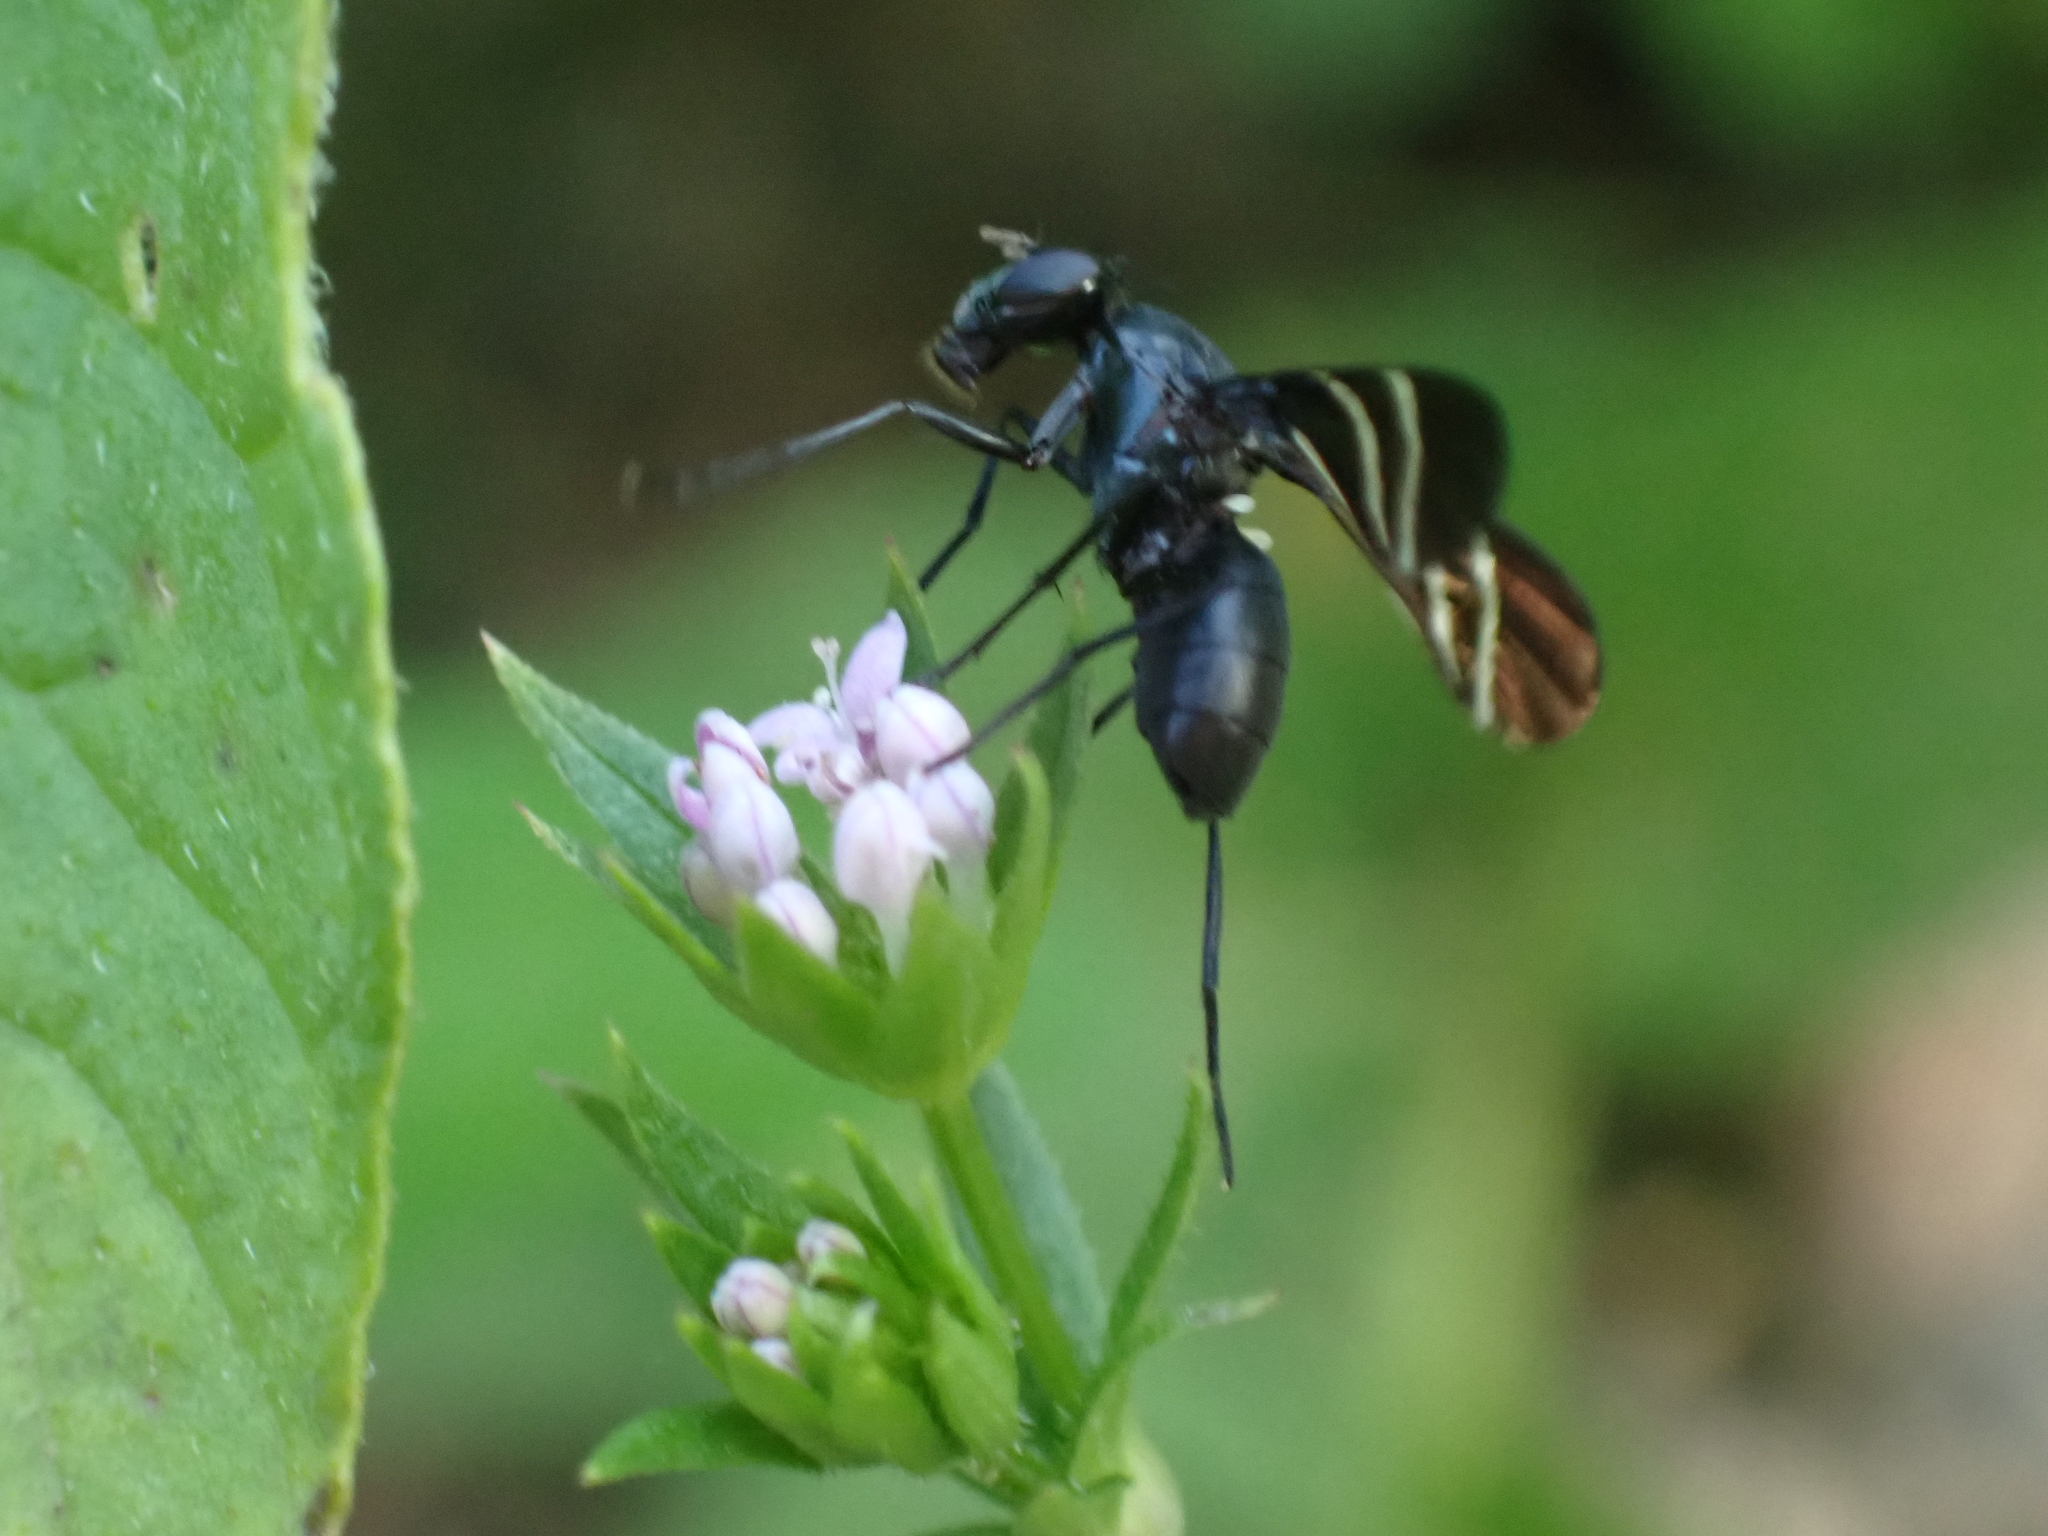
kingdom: Animalia
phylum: Arthropoda
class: Insecta
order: Diptera
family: Ulidiidae
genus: Tritoxa
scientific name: Tritoxa flexa
